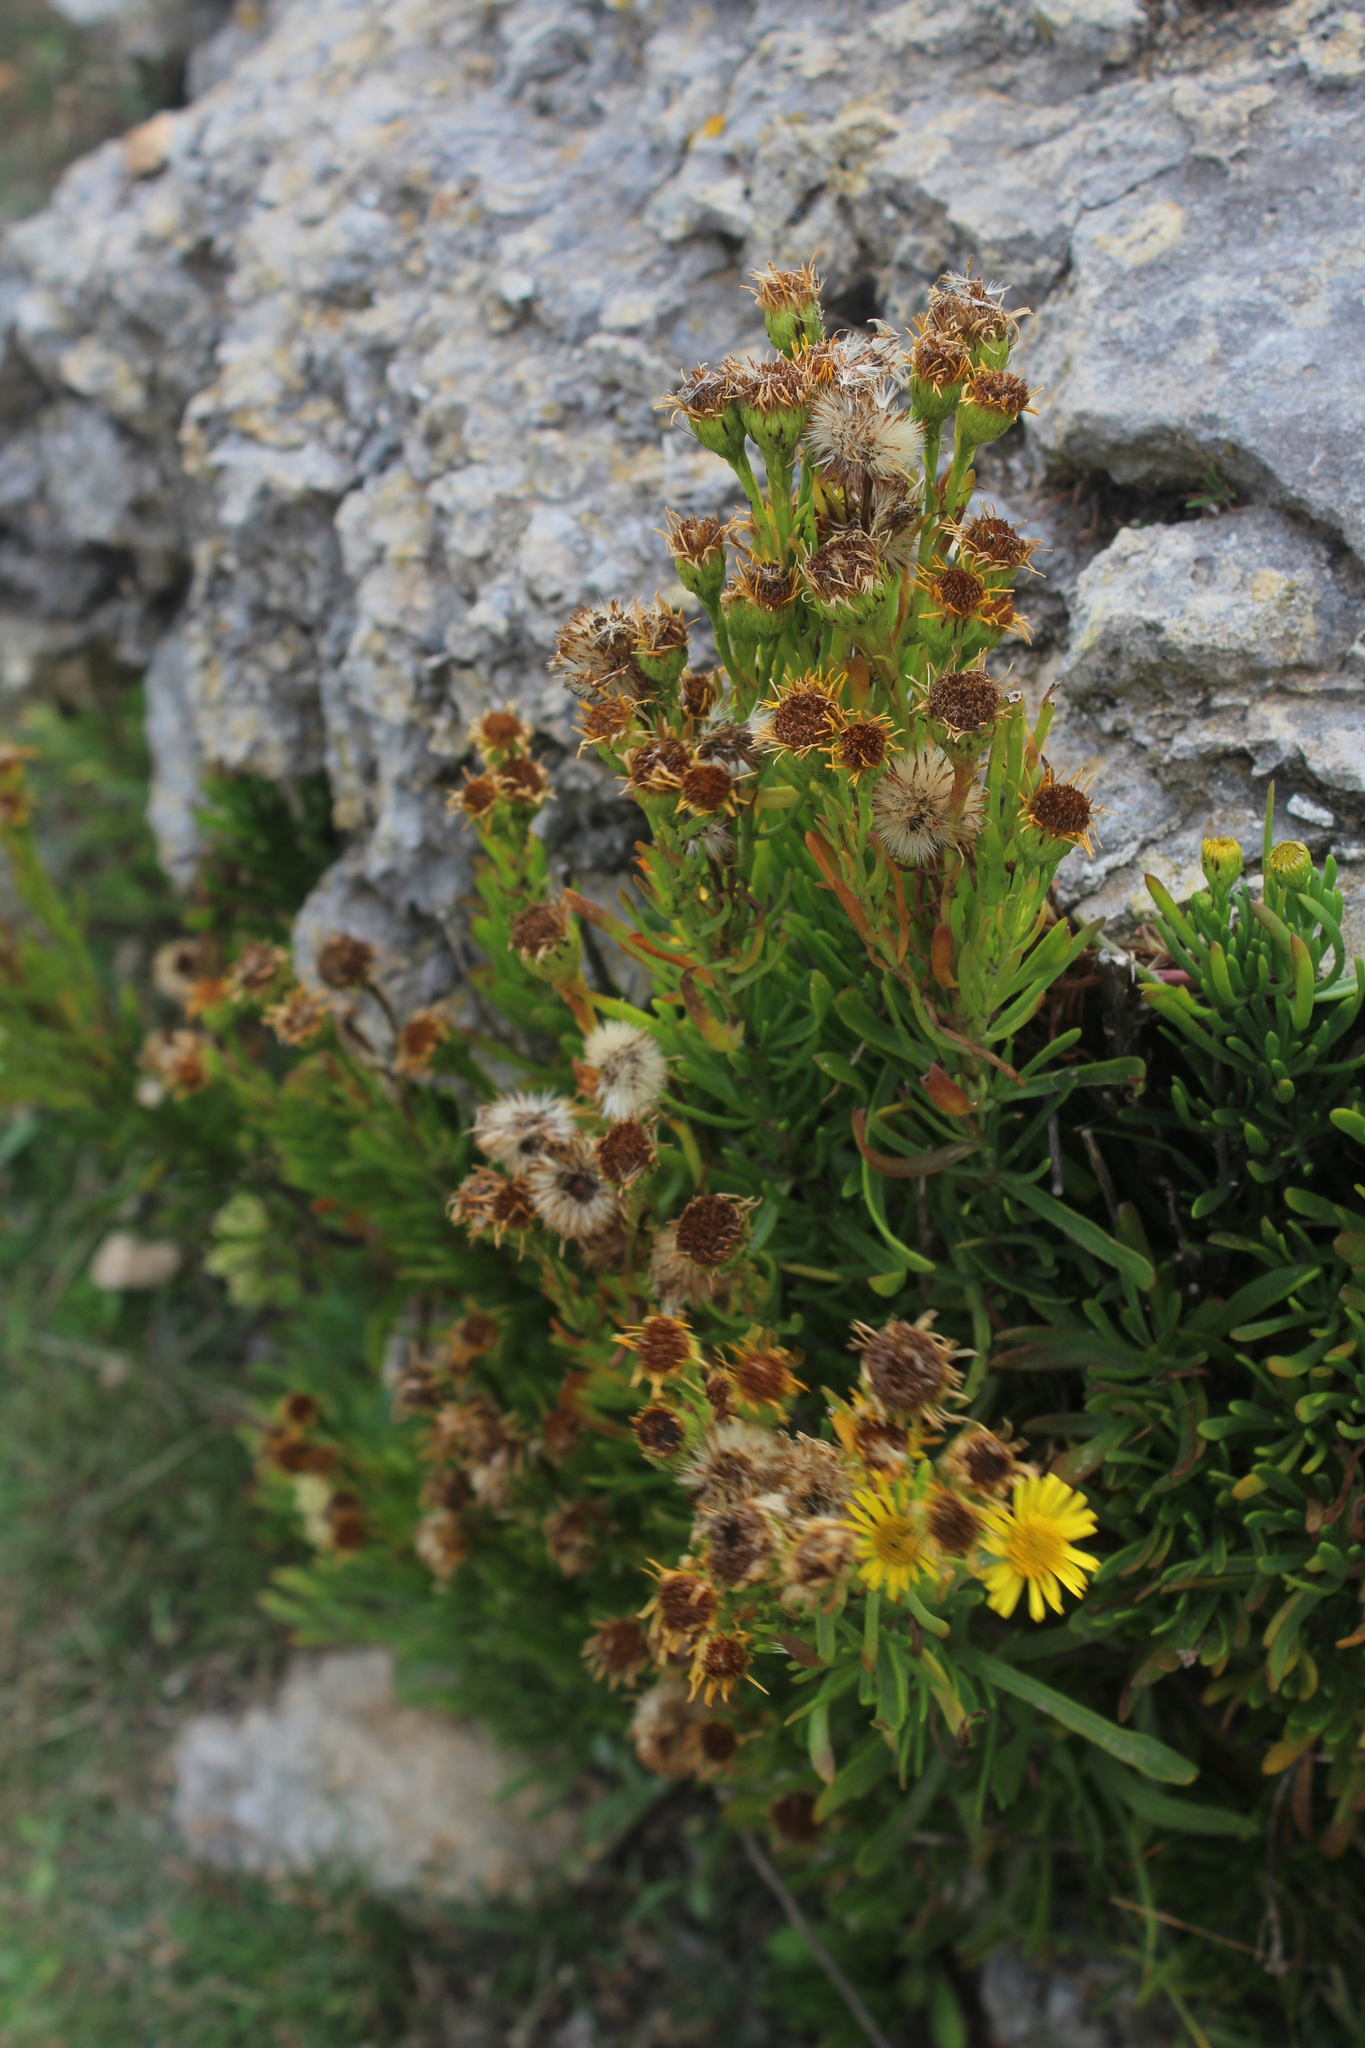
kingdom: Plantae
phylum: Tracheophyta
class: Magnoliopsida
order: Asterales
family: Asteraceae
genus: Limbarda
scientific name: Limbarda crithmoides
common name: Golden samphire
